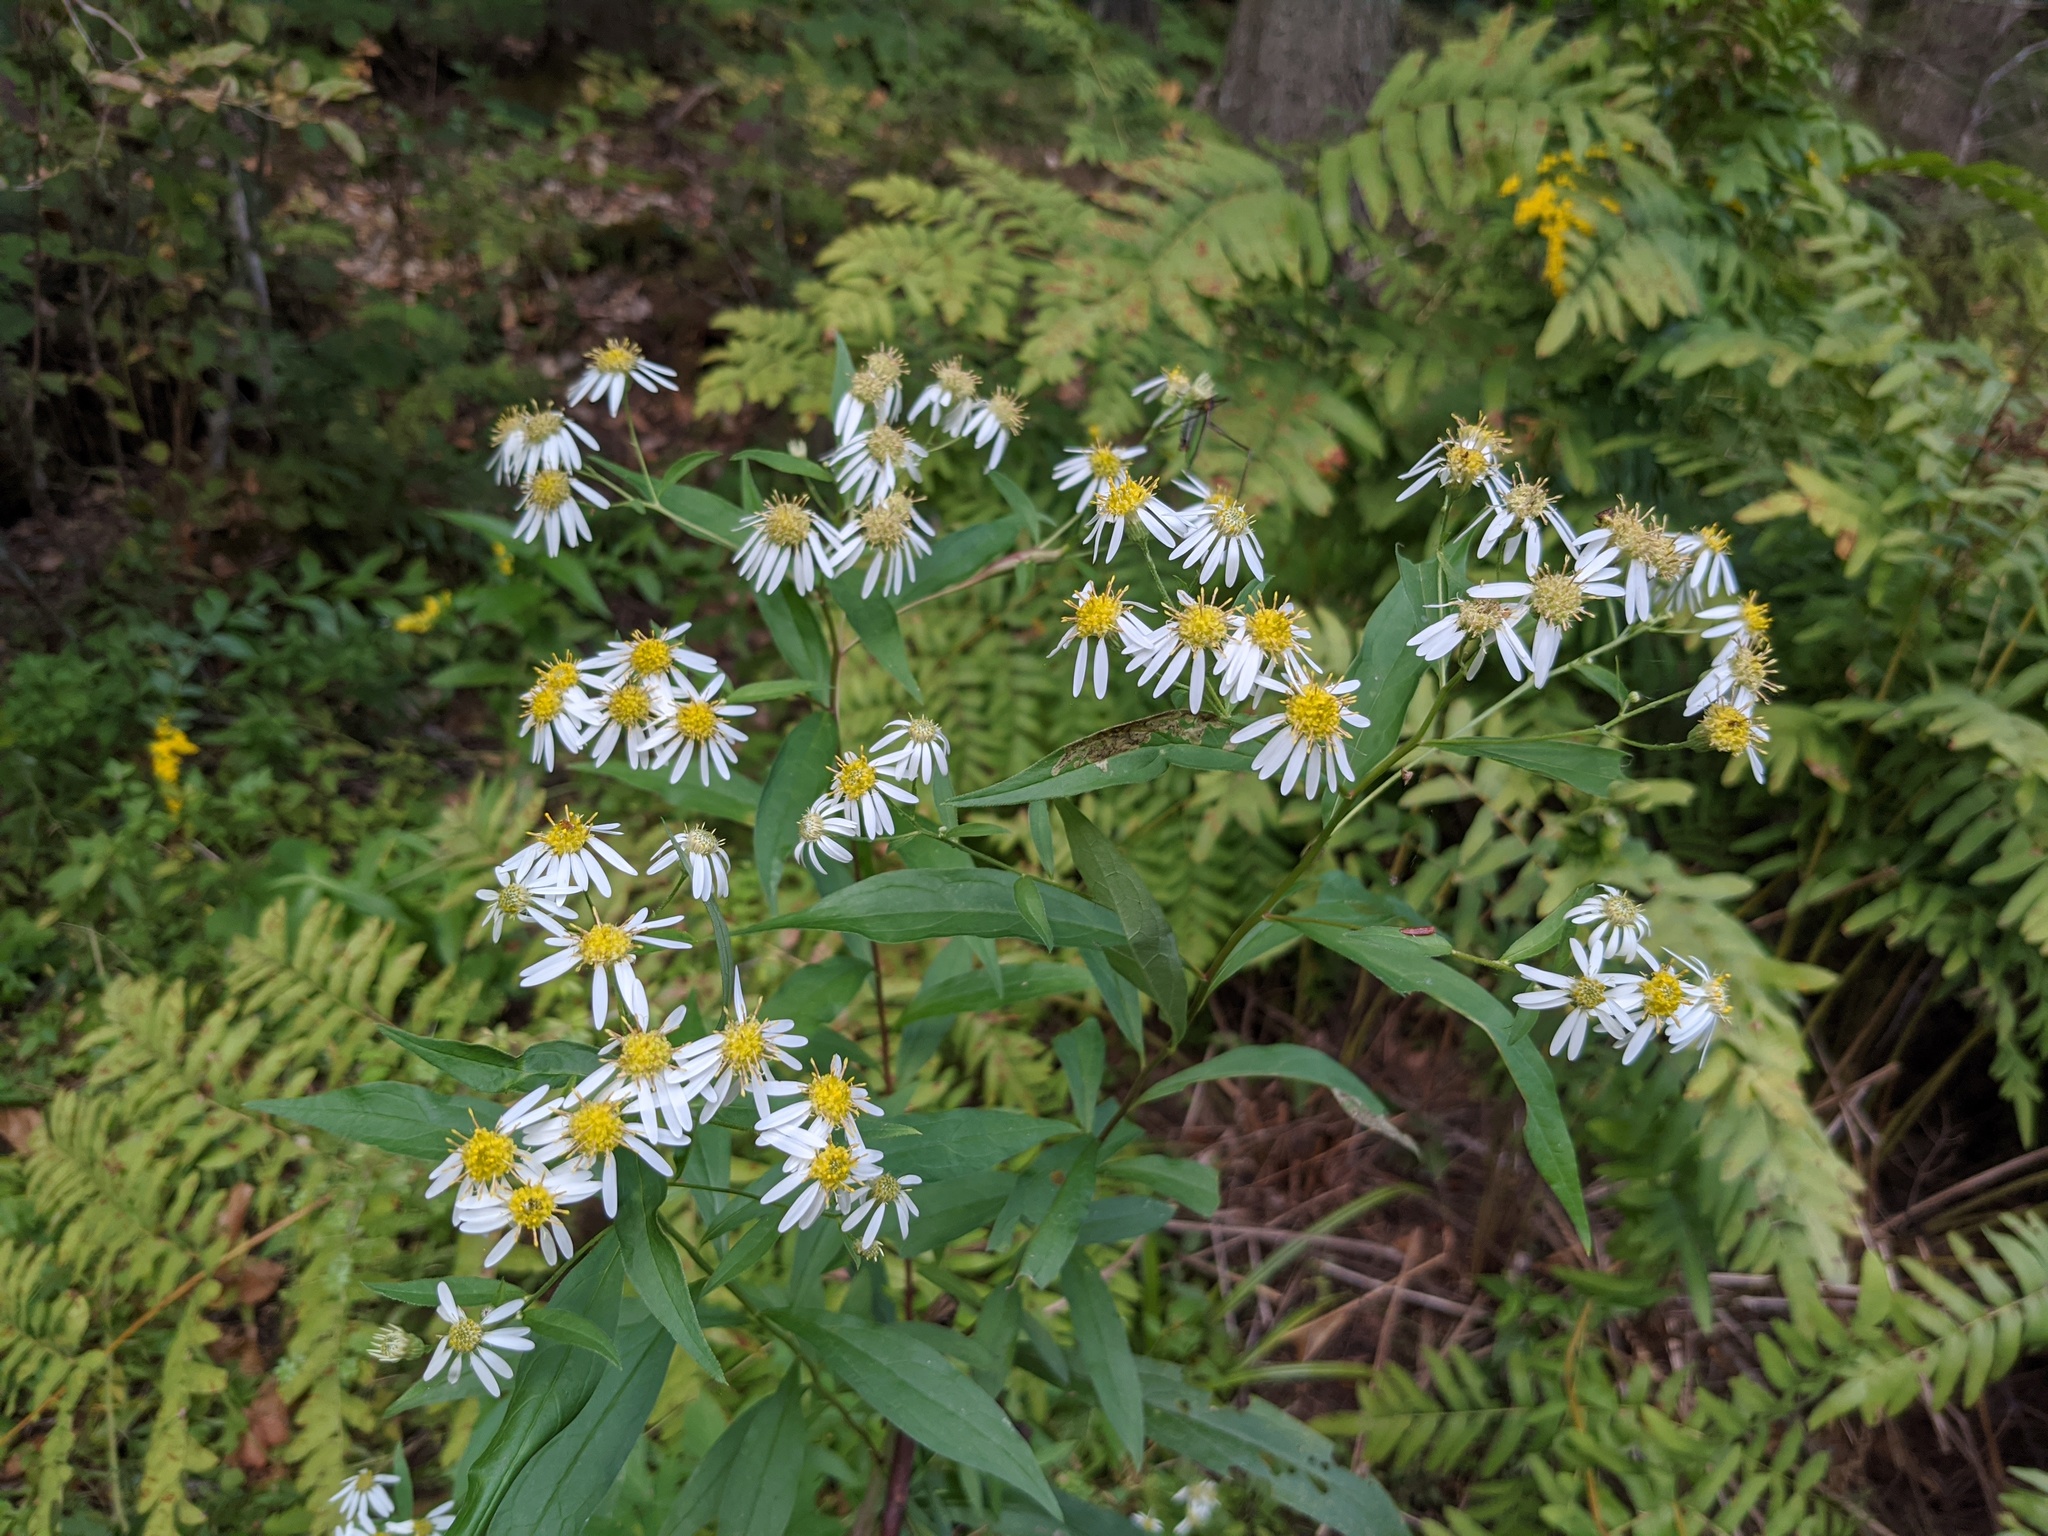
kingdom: Plantae
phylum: Tracheophyta
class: Magnoliopsida
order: Asterales
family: Asteraceae
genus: Doellingeria
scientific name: Doellingeria umbellata
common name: Flat-top white aster
